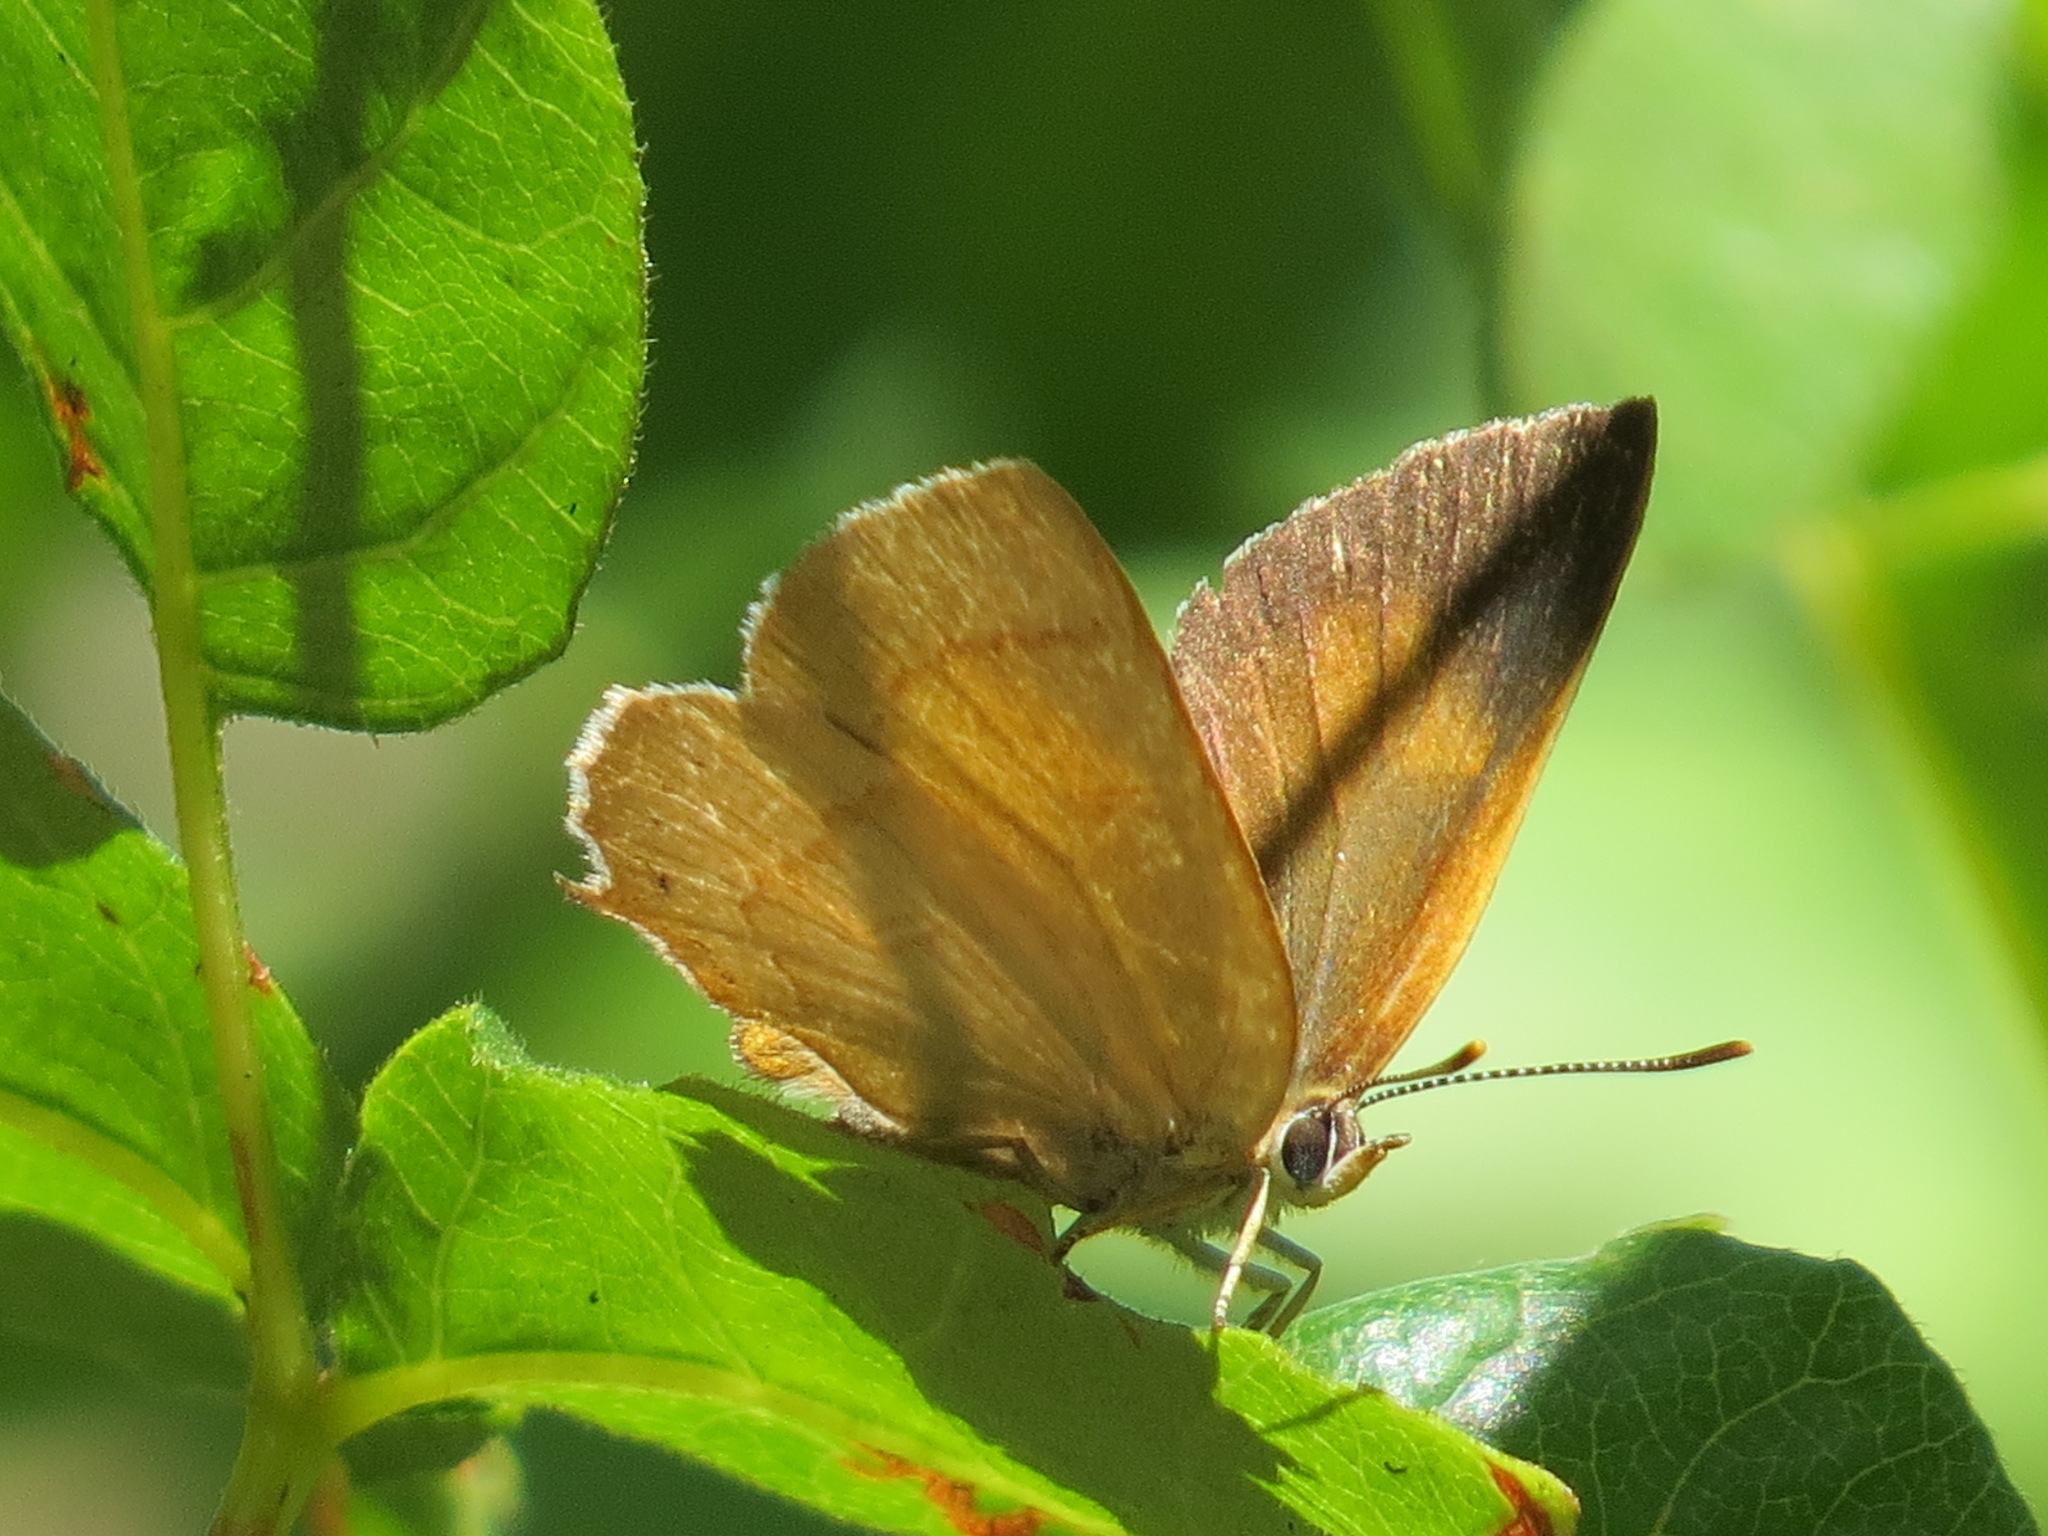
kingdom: Animalia
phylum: Arthropoda
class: Insecta
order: Lepidoptera
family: Lycaenidae
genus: Habrodais
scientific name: Habrodais grunus
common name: Golden hairstreak
